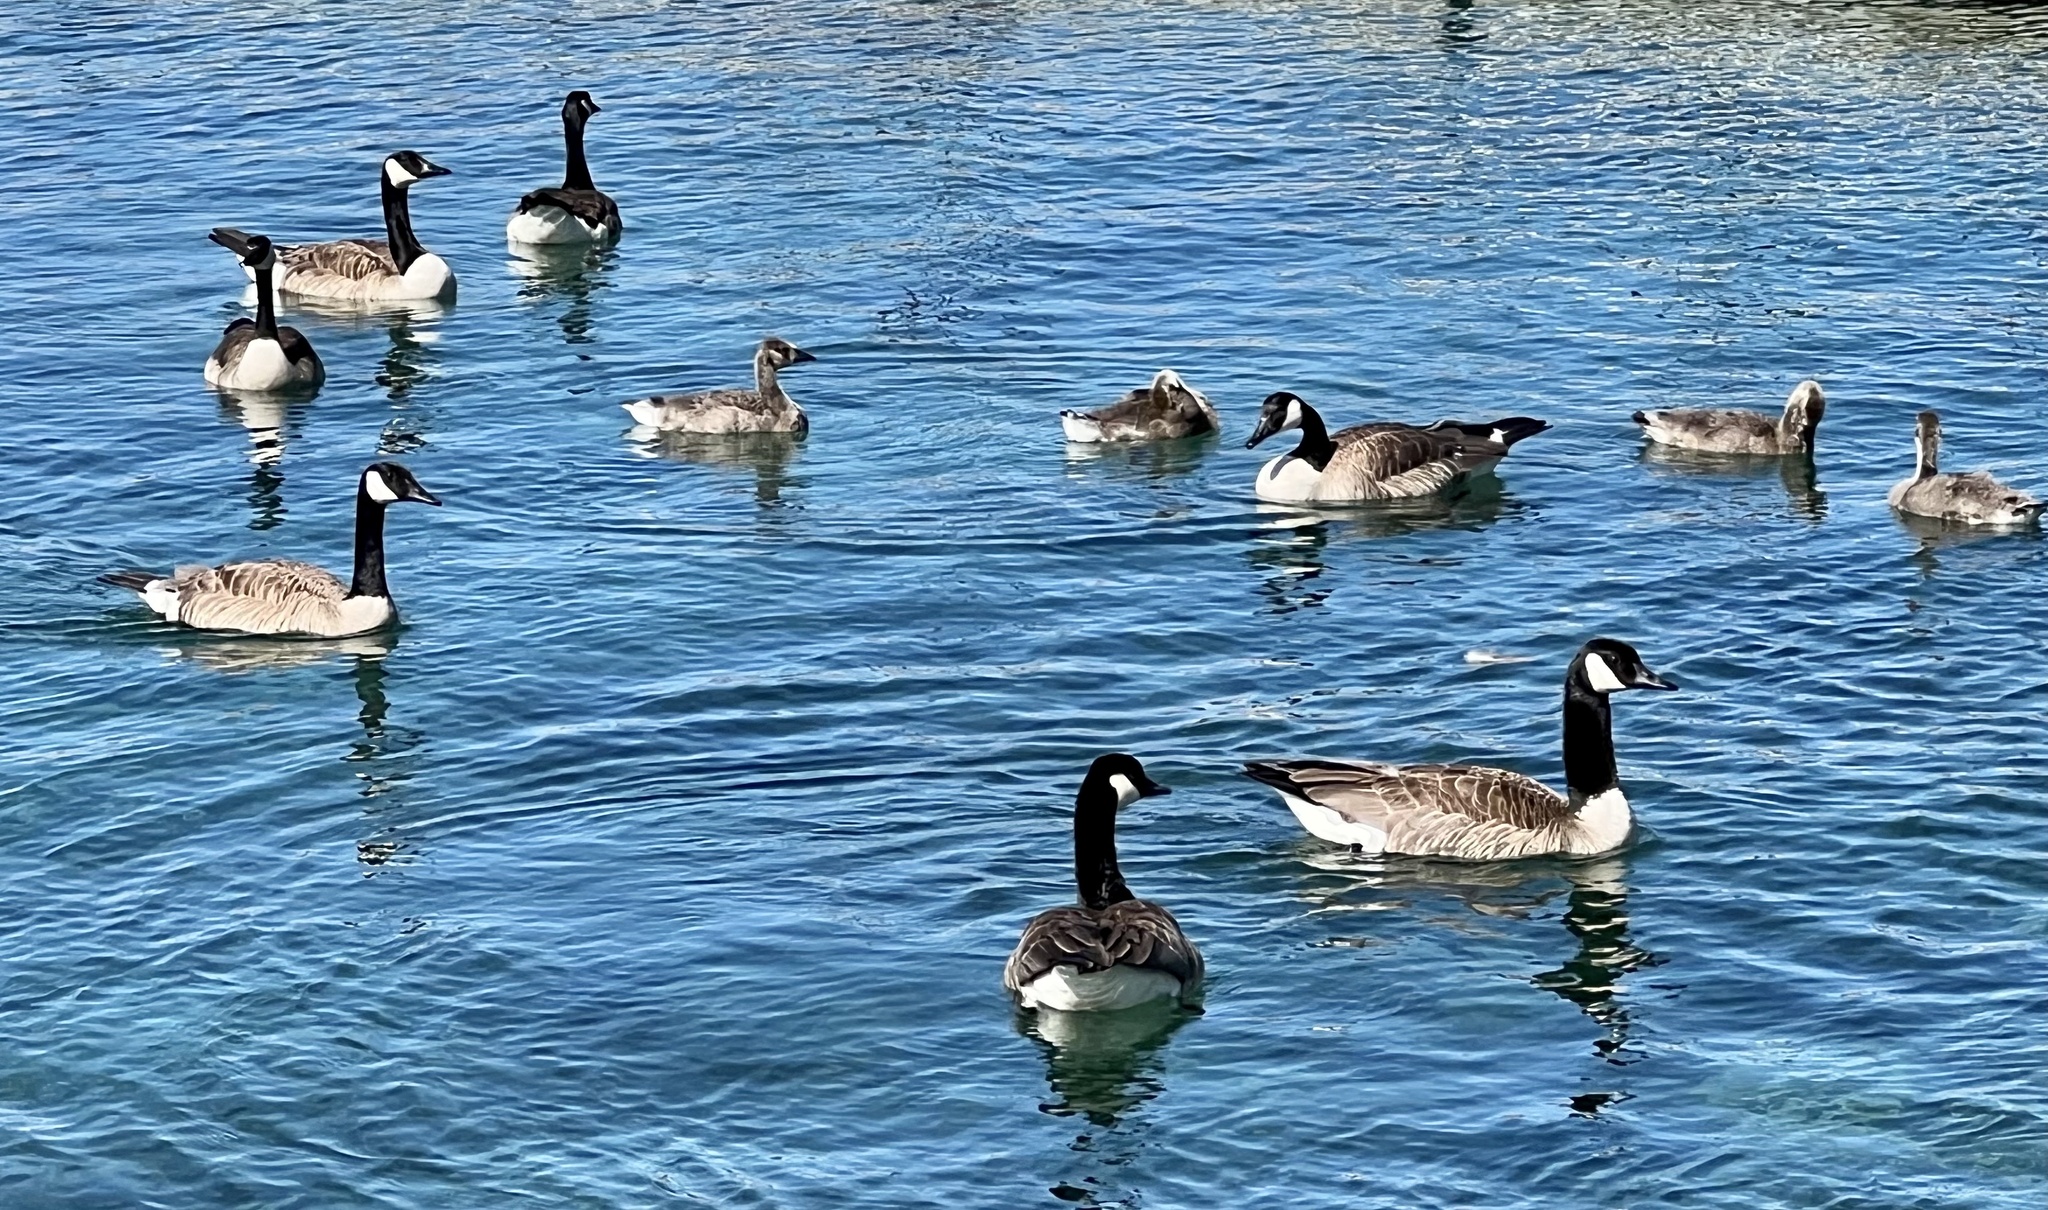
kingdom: Animalia
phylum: Chordata
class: Aves
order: Anseriformes
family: Anatidae
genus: Branta
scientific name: Branta canadensis
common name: Canada goose
